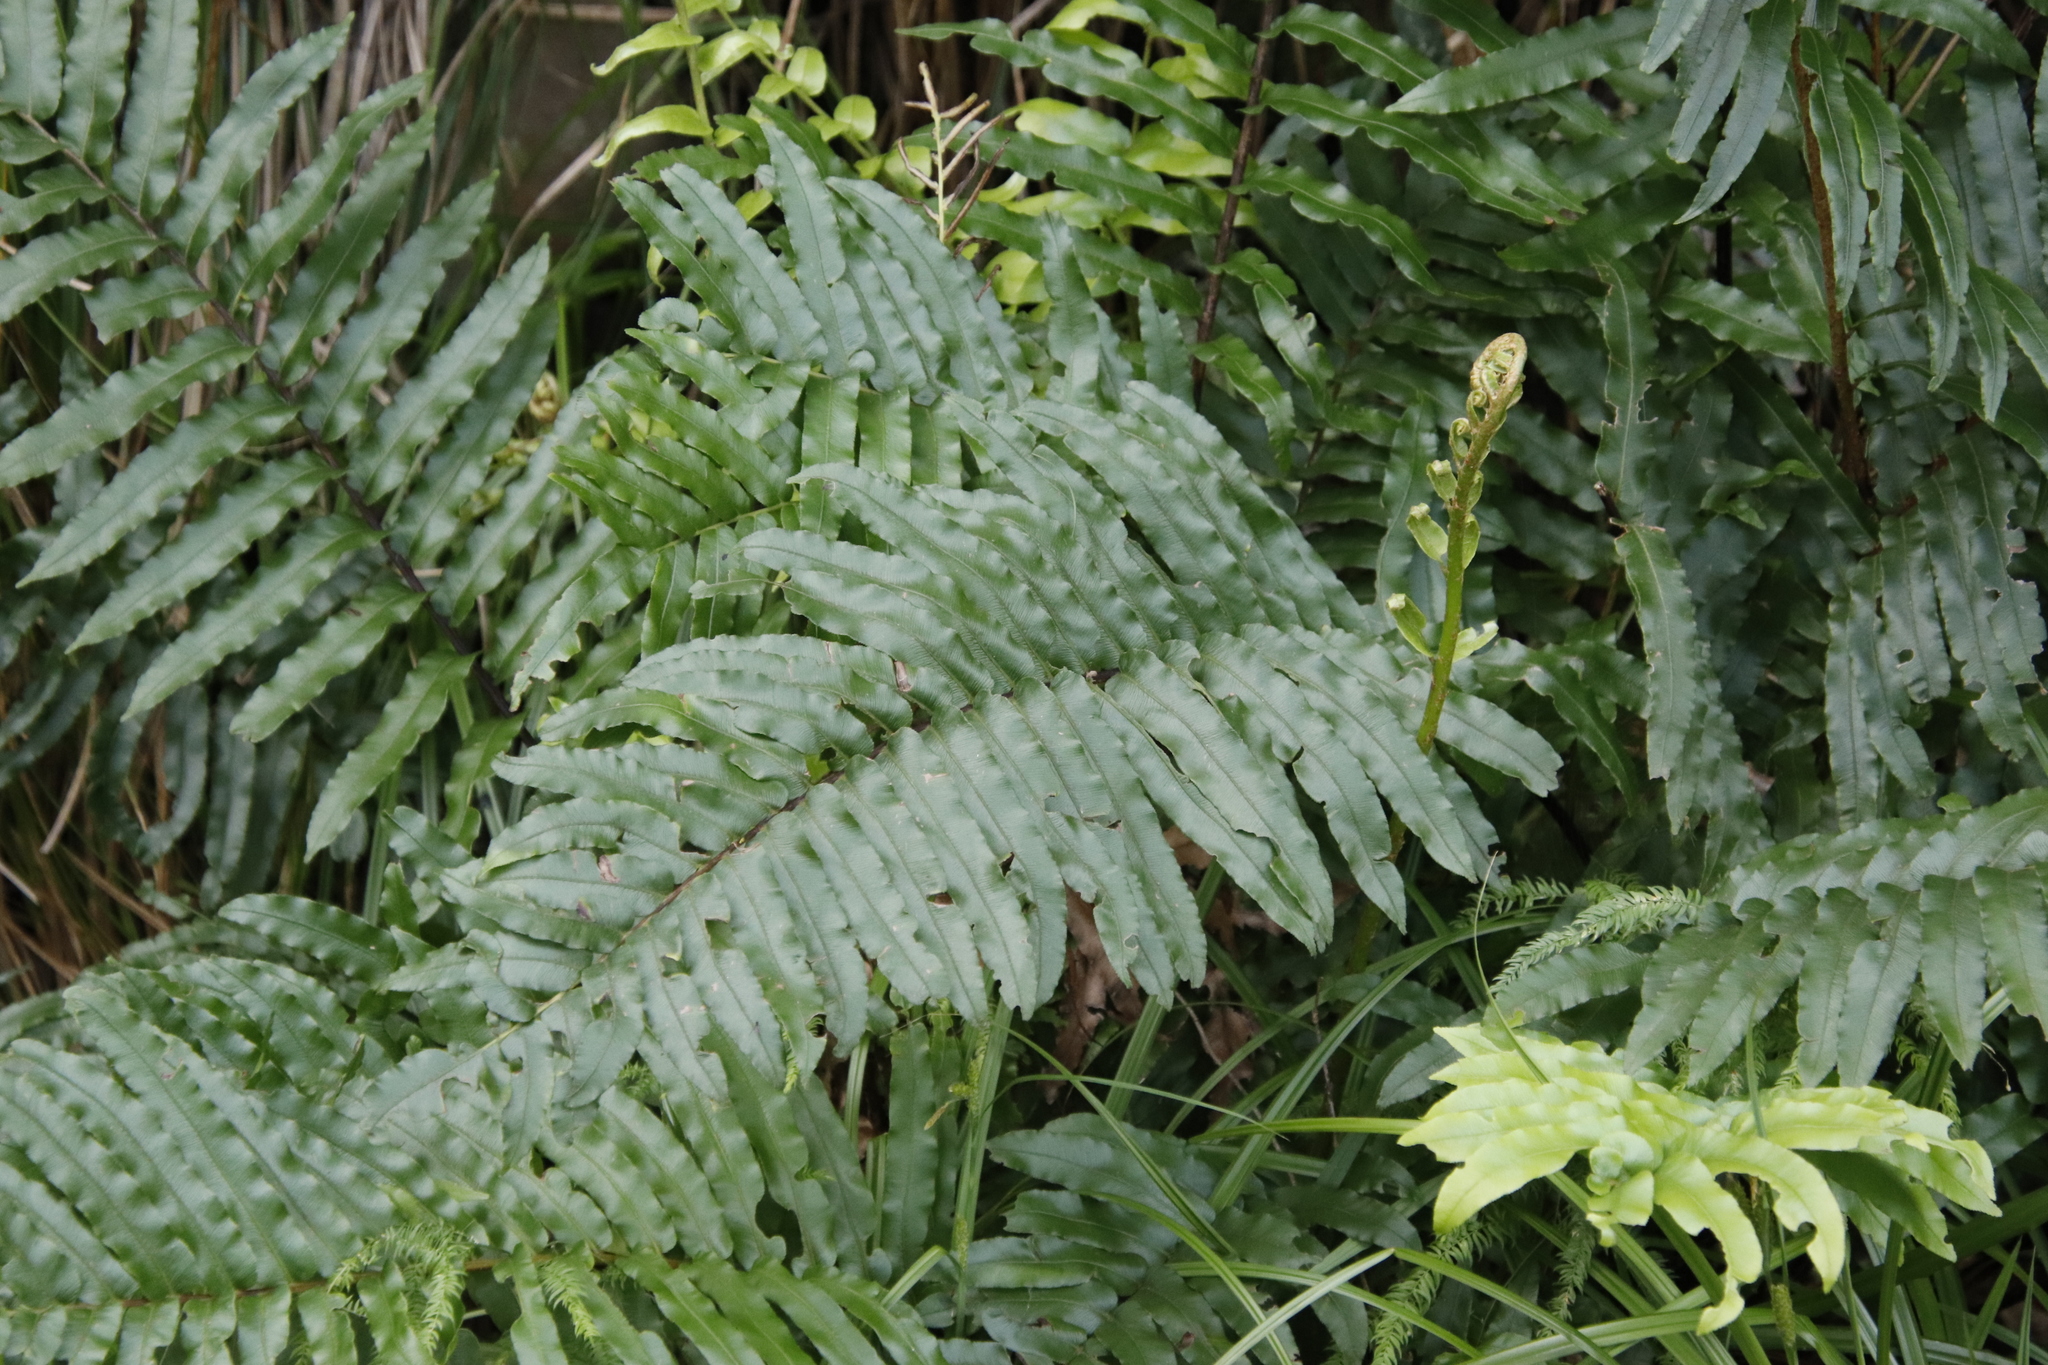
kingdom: Plantae
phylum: Tracheophyta
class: Polypodiopsida
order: Polypodiales
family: Blechnaceae
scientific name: Blechnaceae
